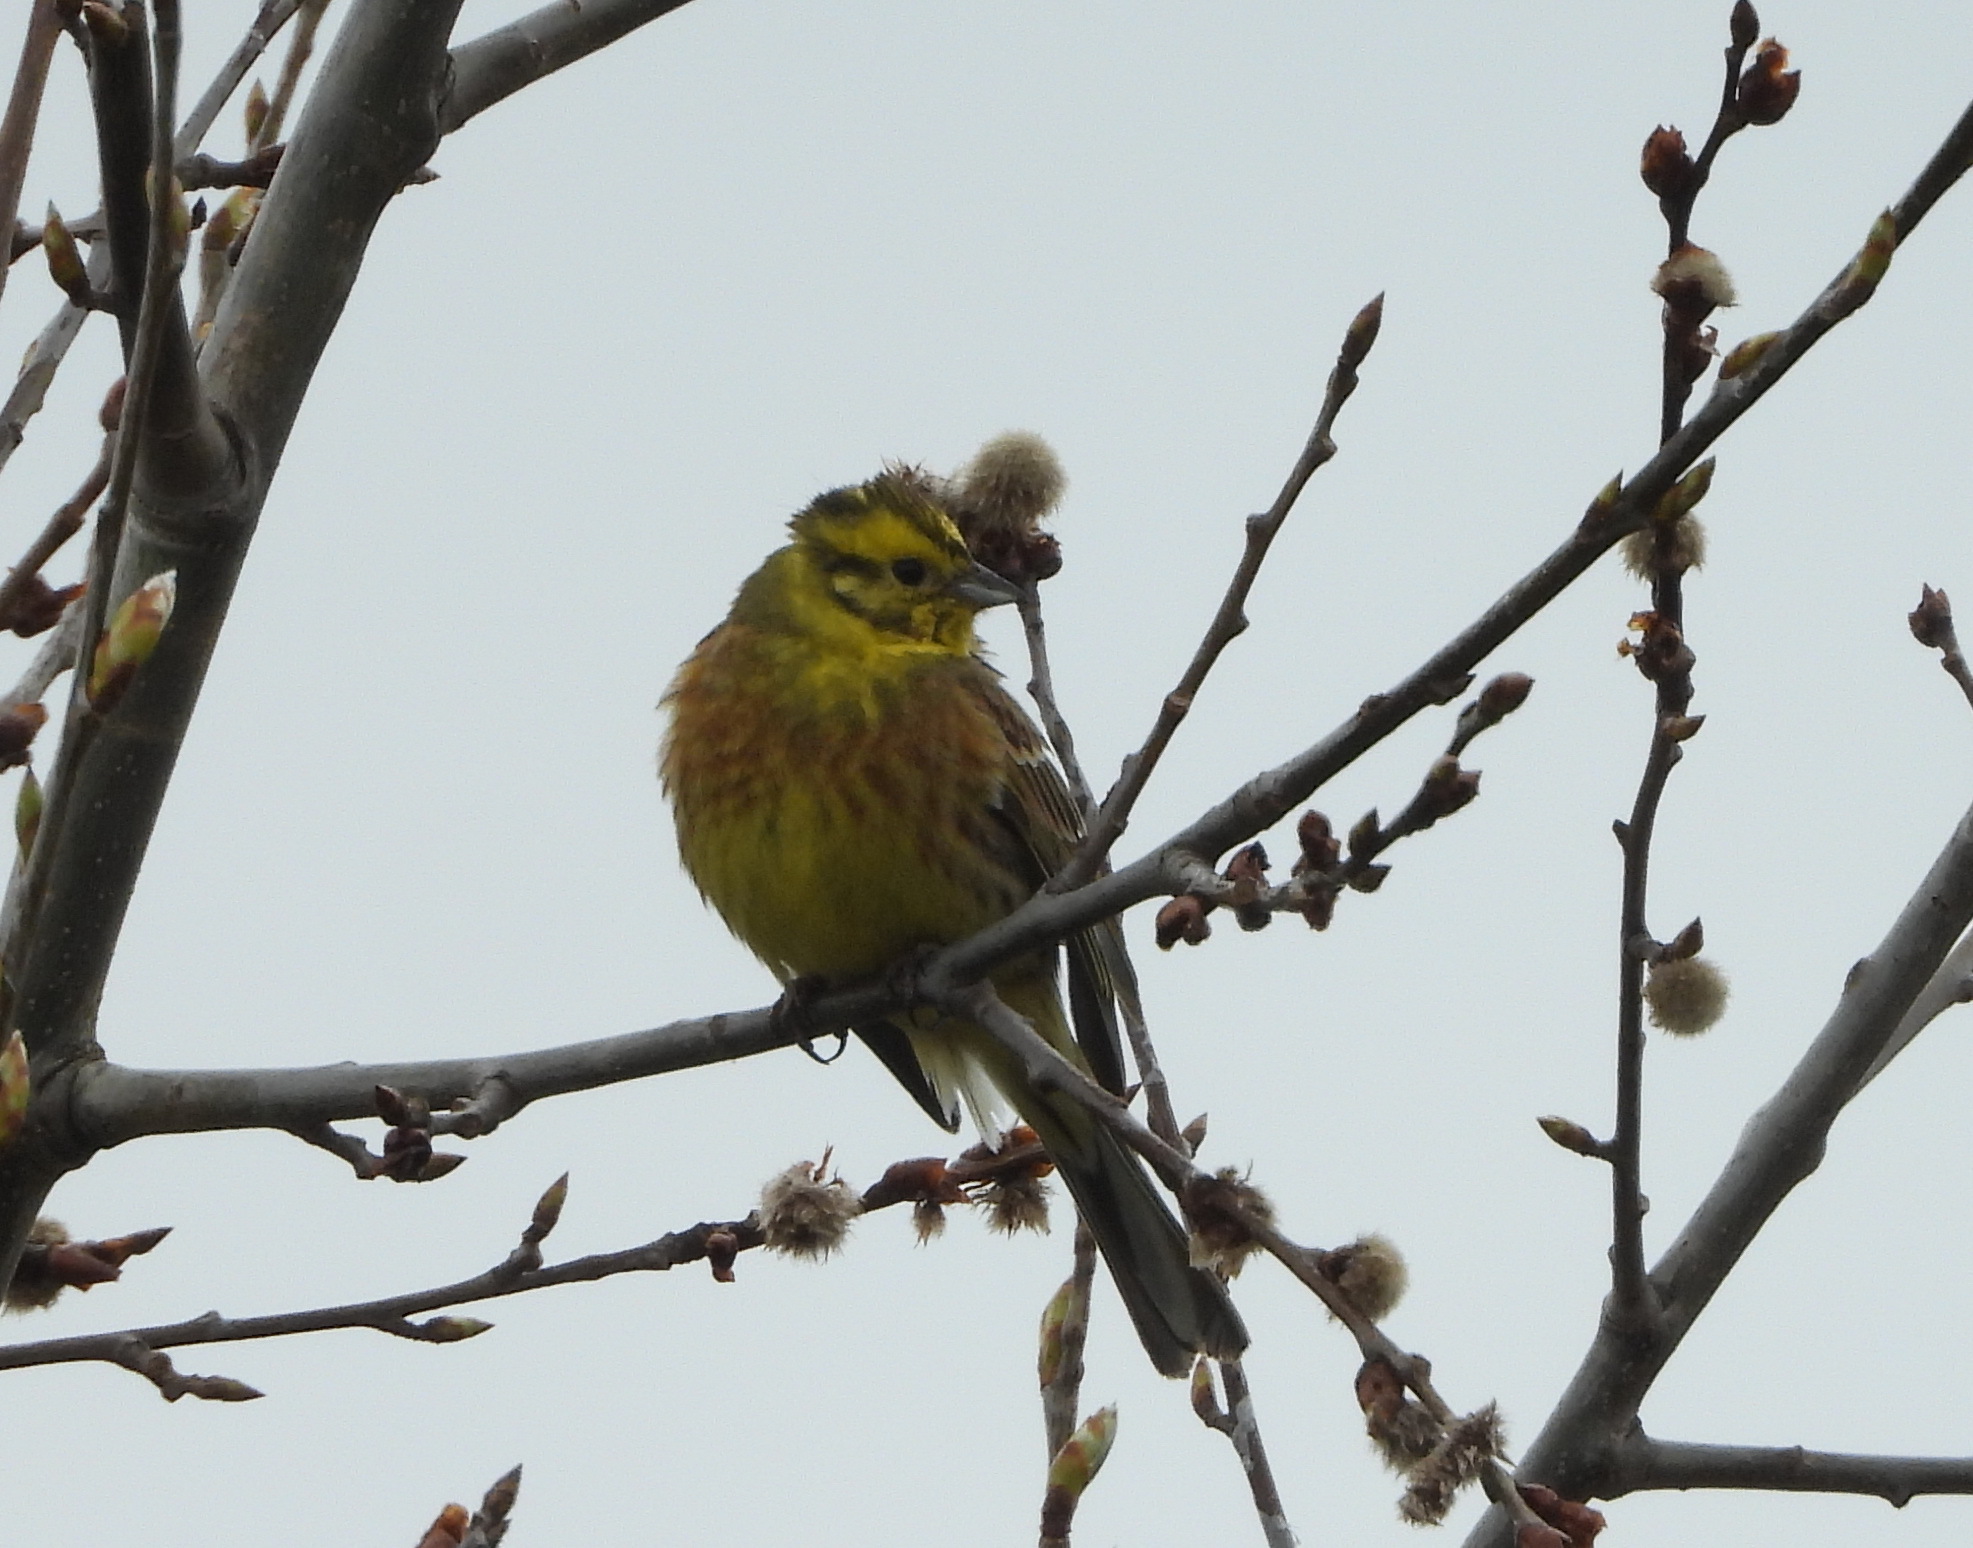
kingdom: Animalia
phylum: Chordata
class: Aves
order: Passeriformes
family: Emberizidae
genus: Emberiza
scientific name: Emberiza citrinella
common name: Yellowhammer
